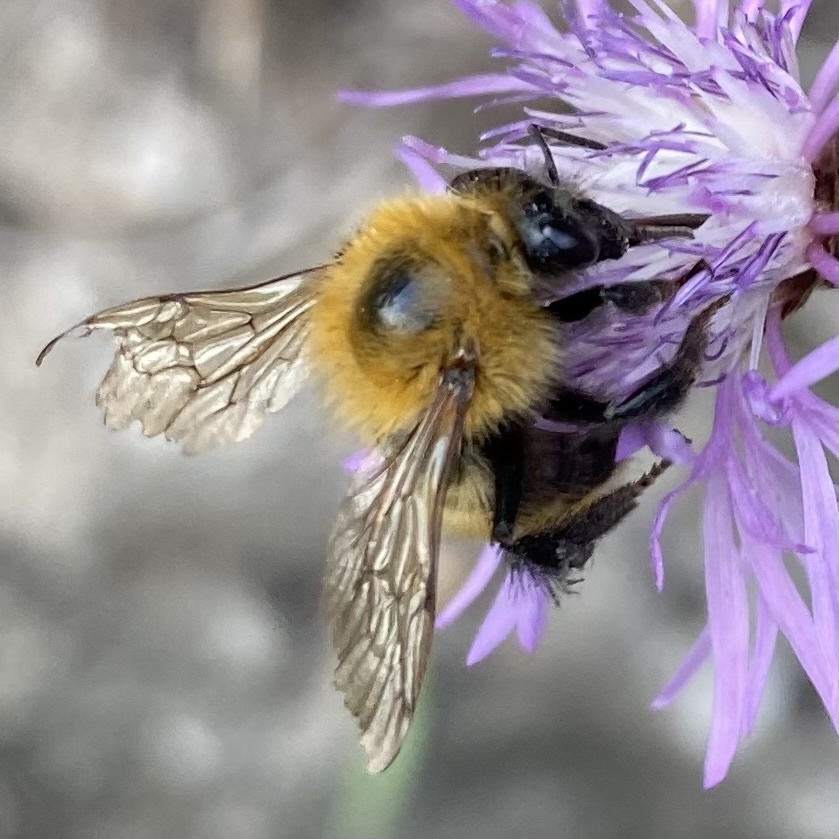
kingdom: Animalia
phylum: Arthropoda
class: Insecta
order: Hymenoptera
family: Apidae
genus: Bombus
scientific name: Bombus pascuorum
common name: Common carder bee
